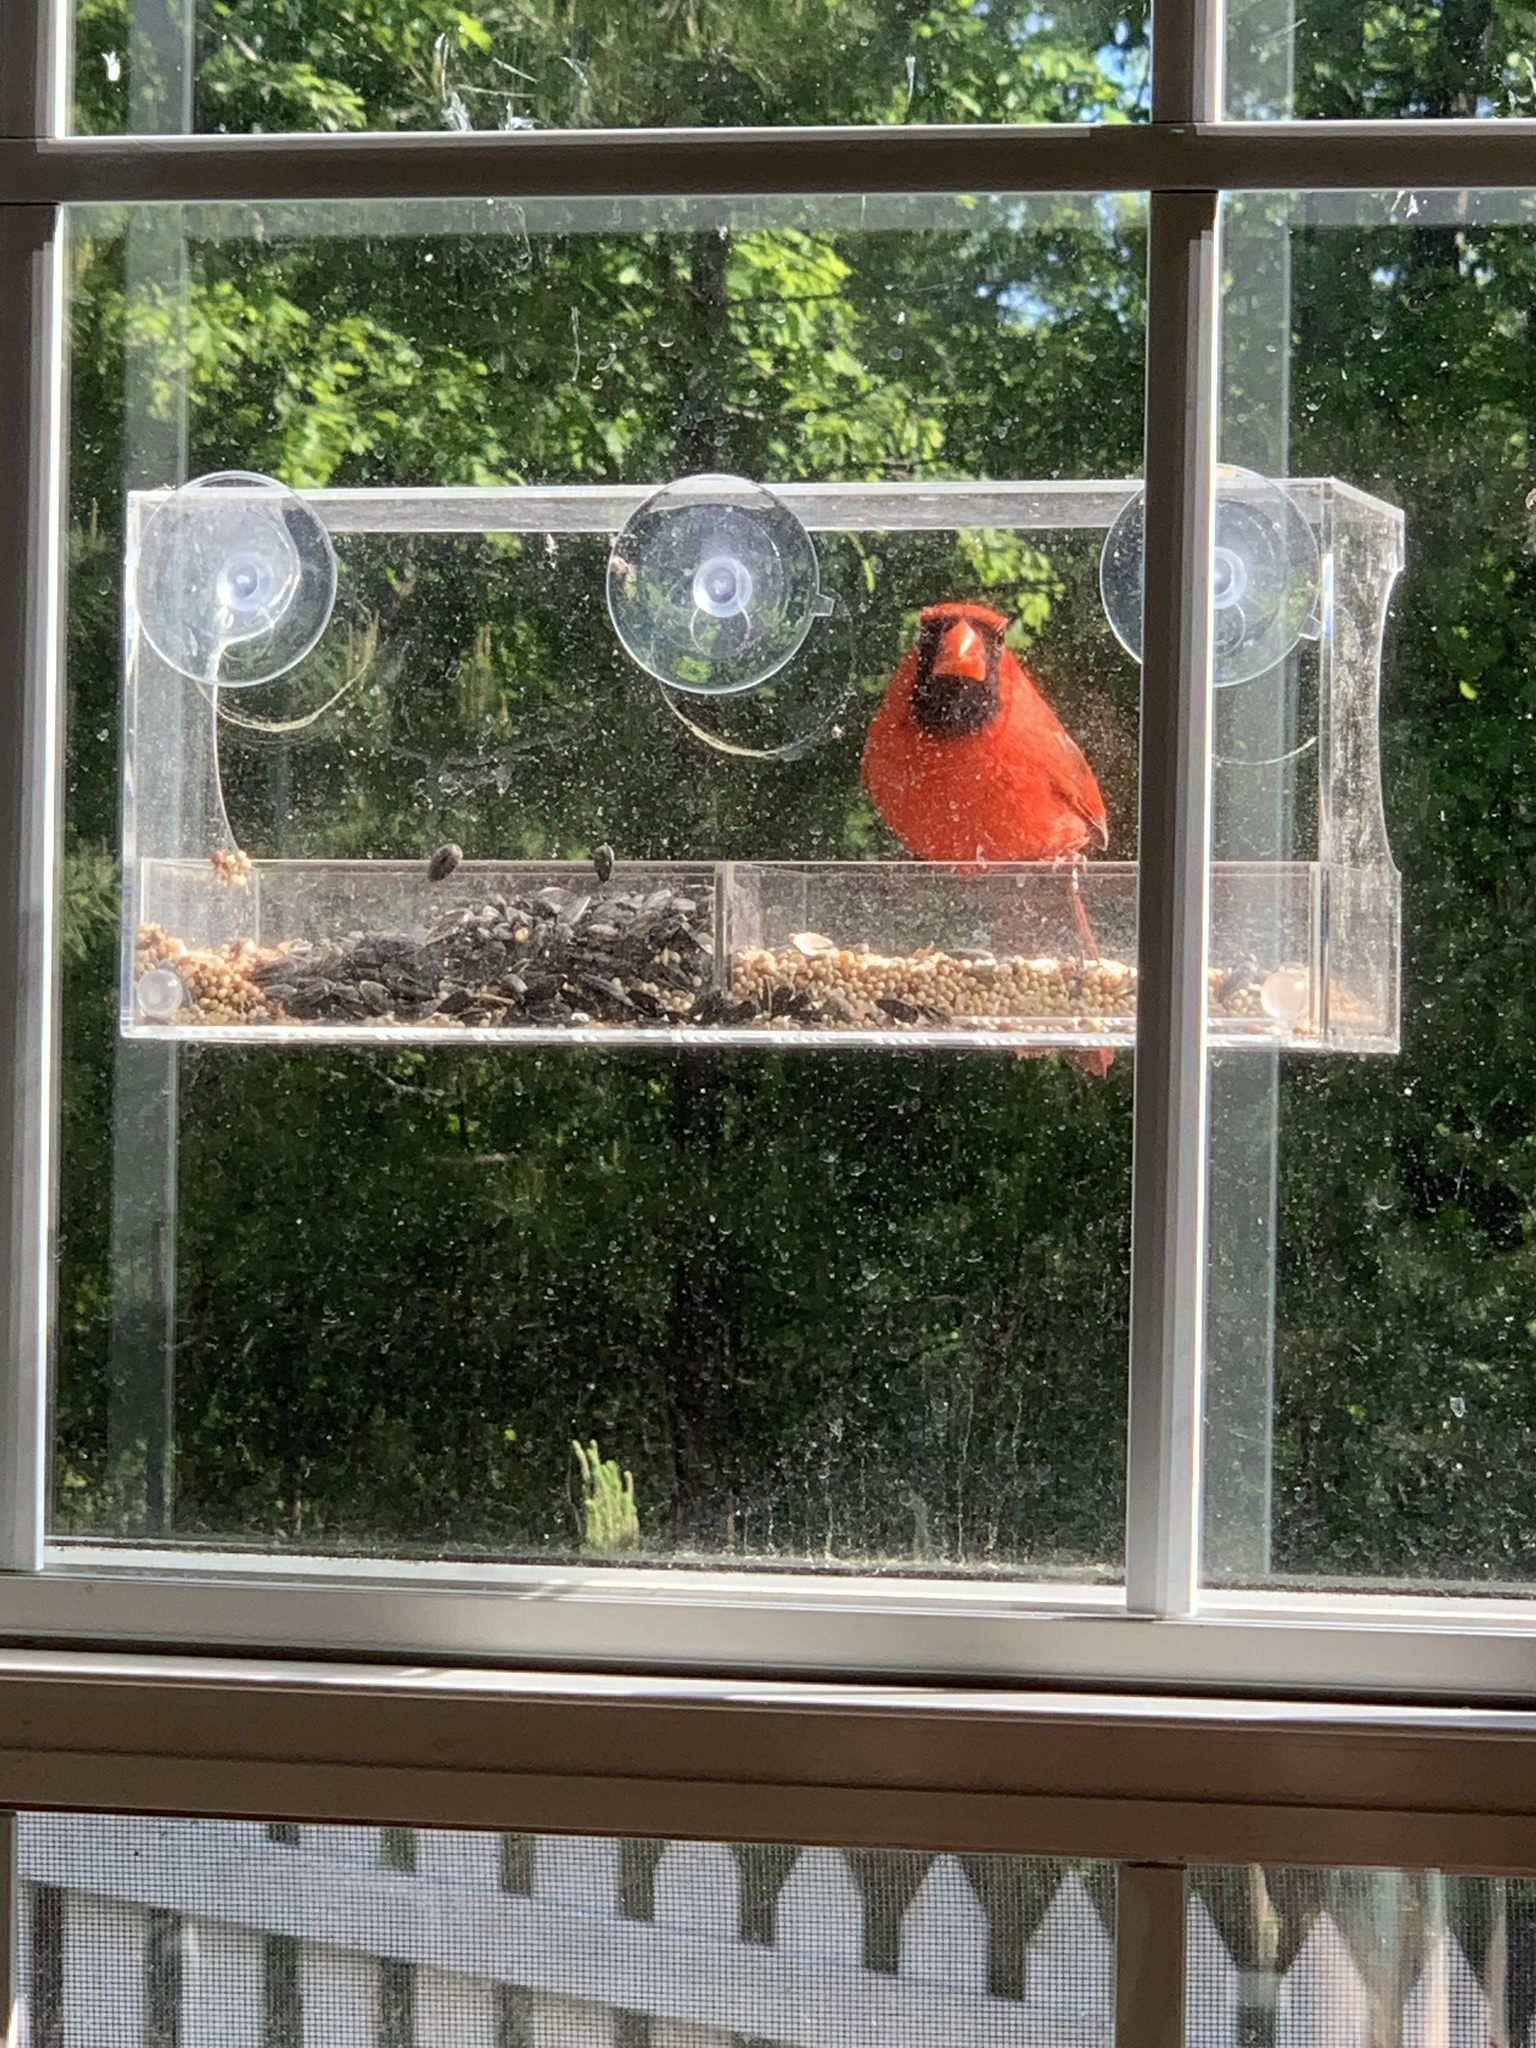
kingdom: Animalia
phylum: Chordata
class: Aves
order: Passeriformes
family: Cardinalidae
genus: Cardinalis
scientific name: Cardinalis cardinalis
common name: Northern cardinal
